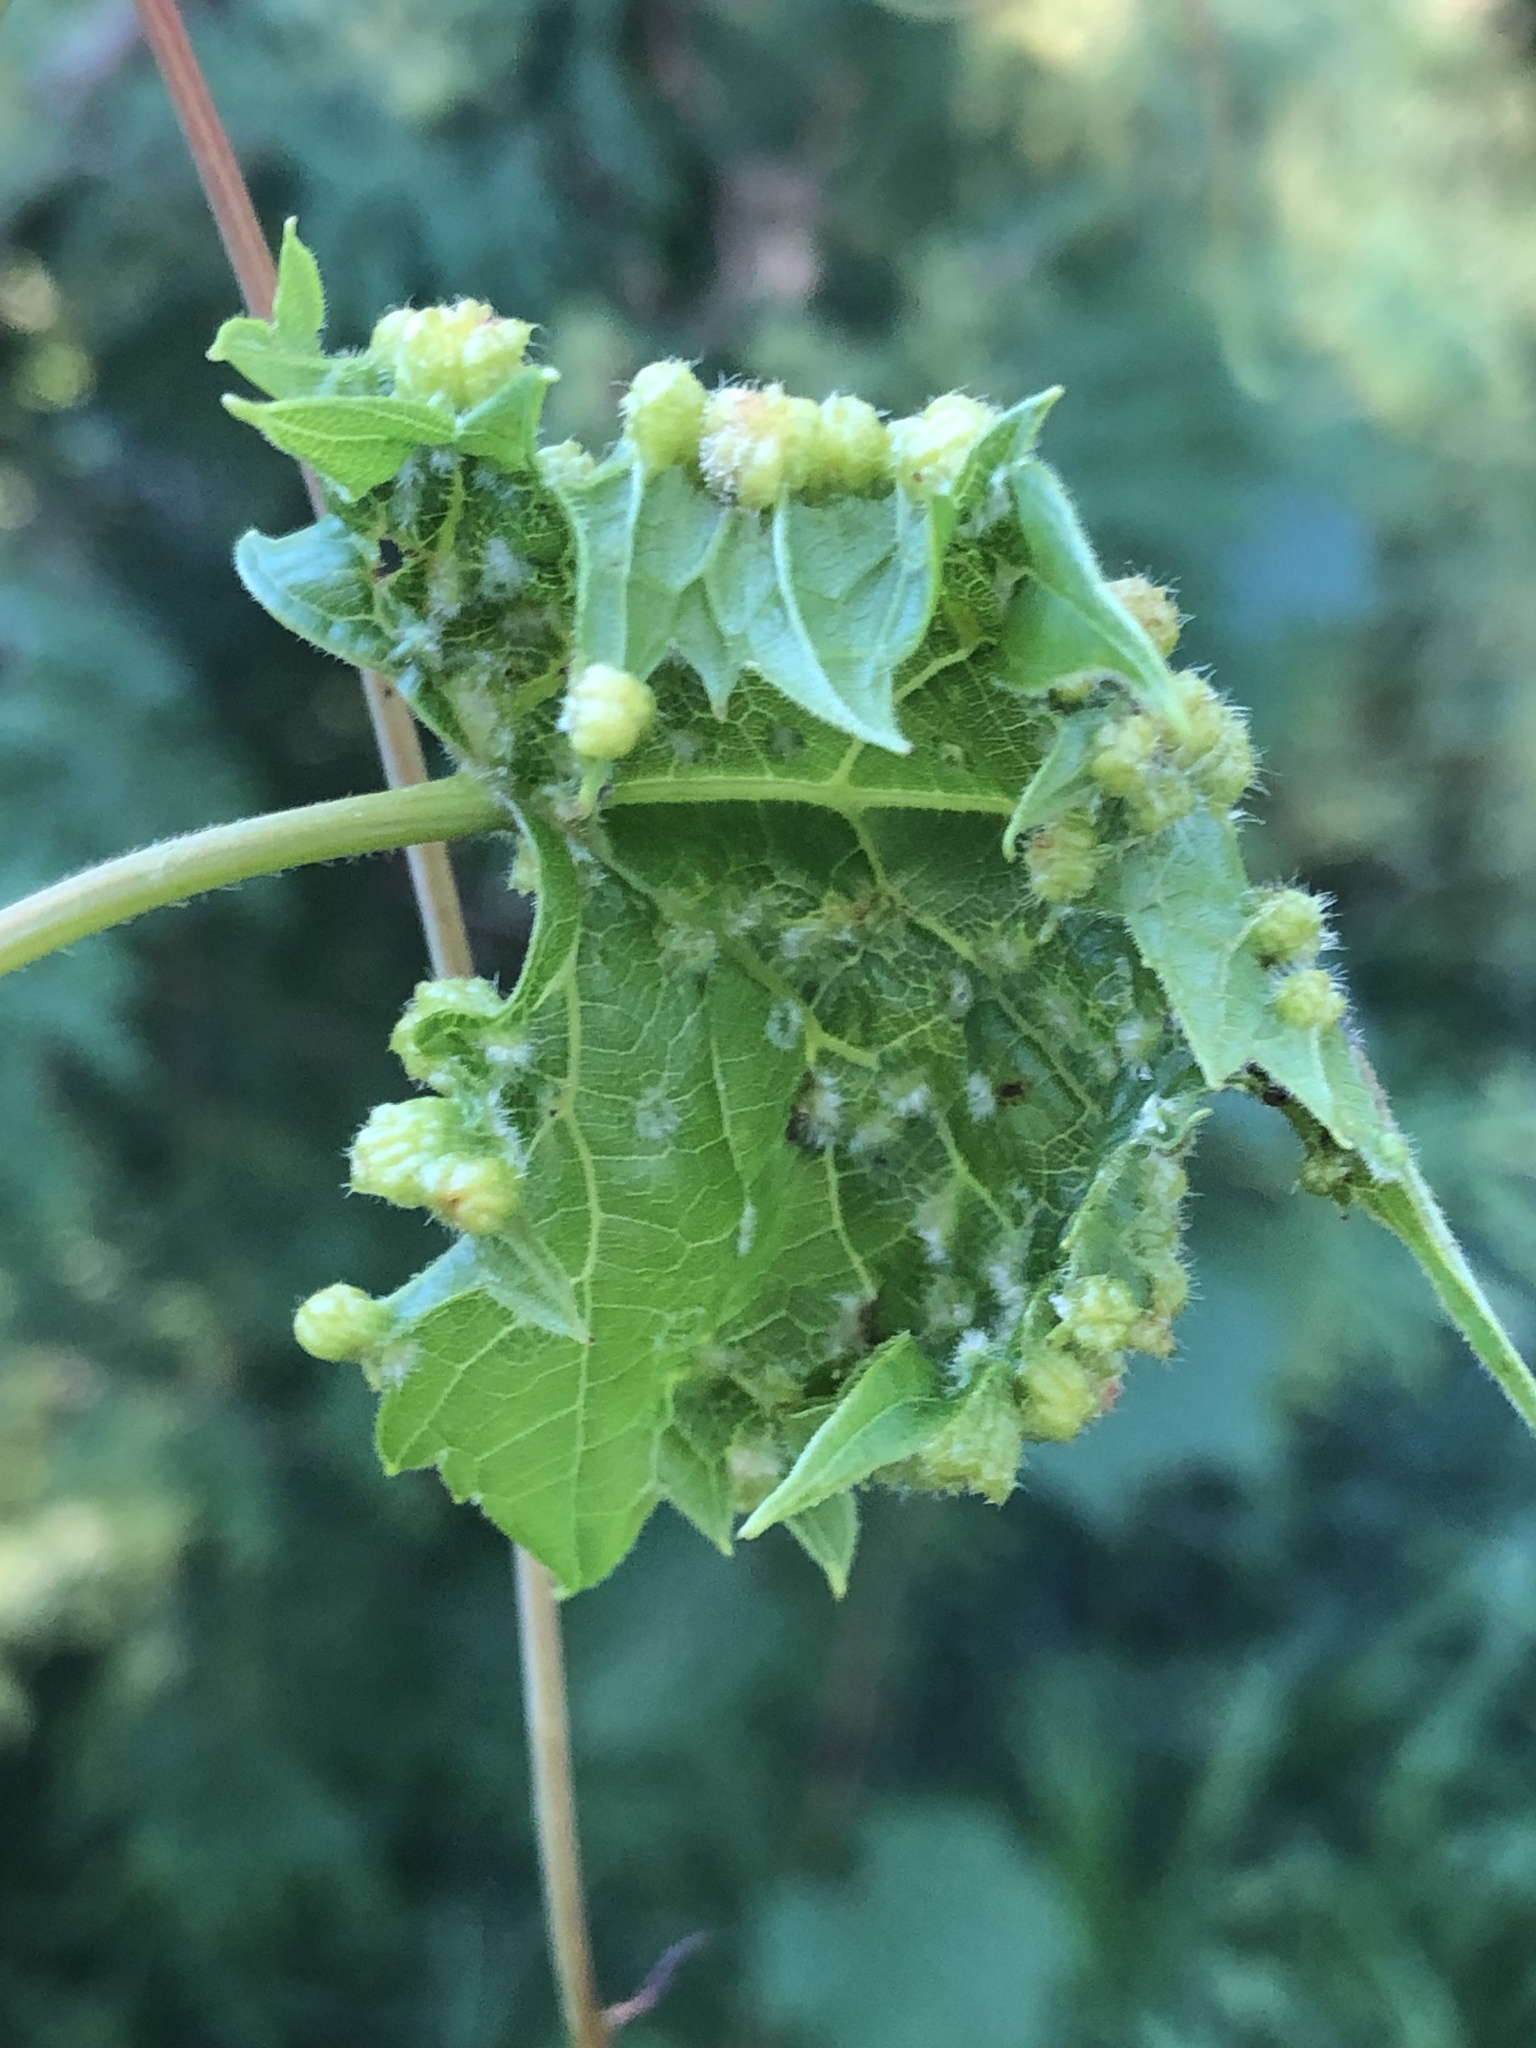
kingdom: Animalia
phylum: Arthropoda
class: Insecta
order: Hemiptera
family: Phylloxeridae
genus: Daktulosphaira
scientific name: Daktulosphaira vitifoliae
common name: Grape phylloxera
